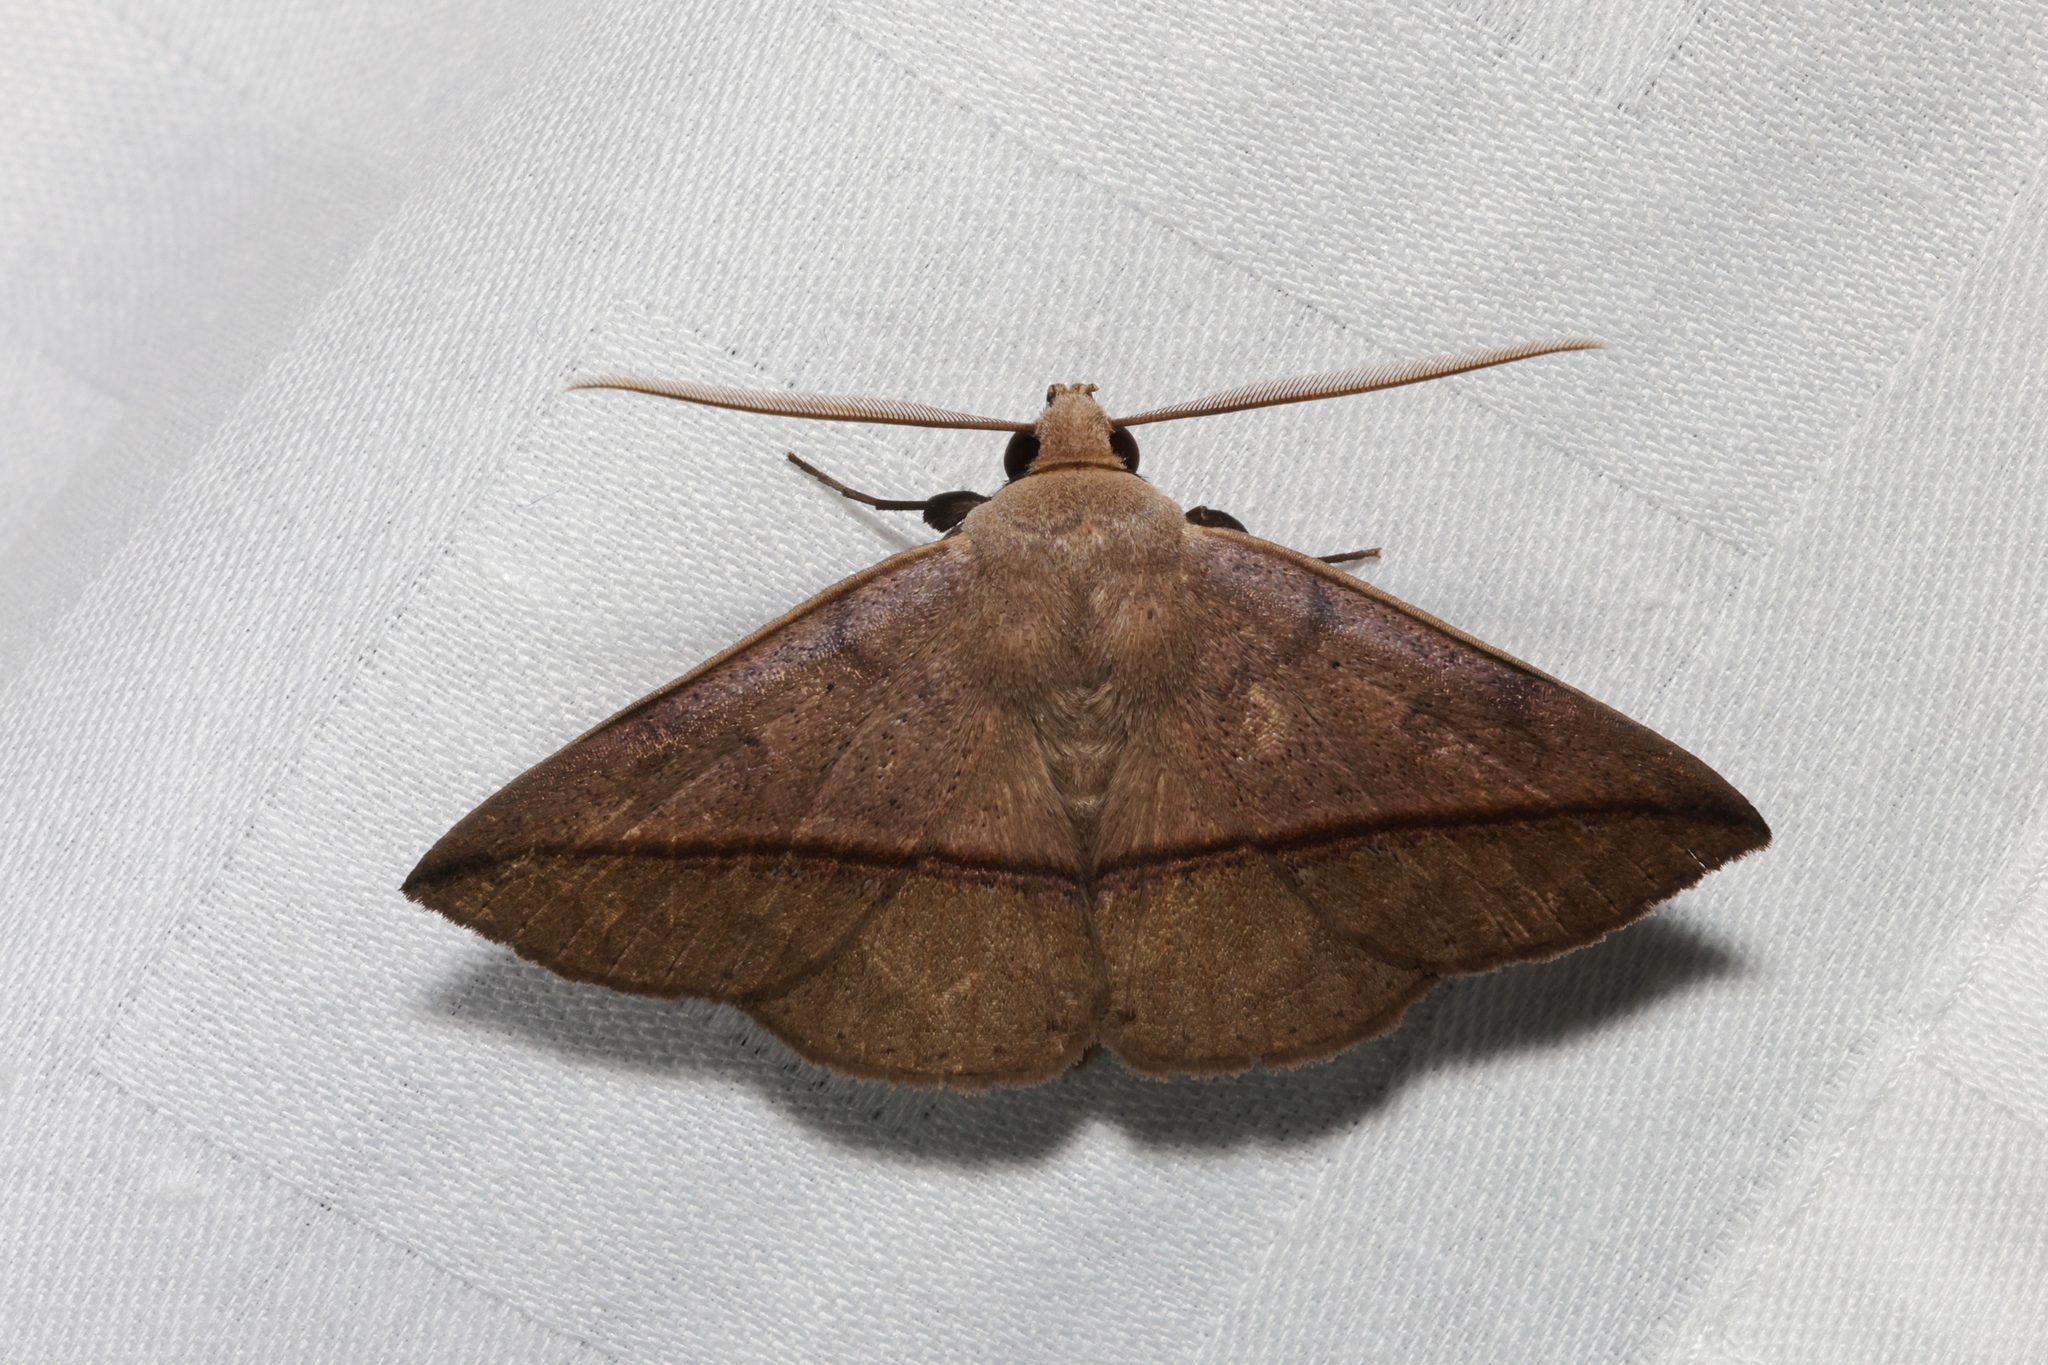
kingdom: Animalia
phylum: Arthropoda
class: Insecta
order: Lepidoptera
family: Erebidae
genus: Ugia
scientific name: Ugia purpurea
